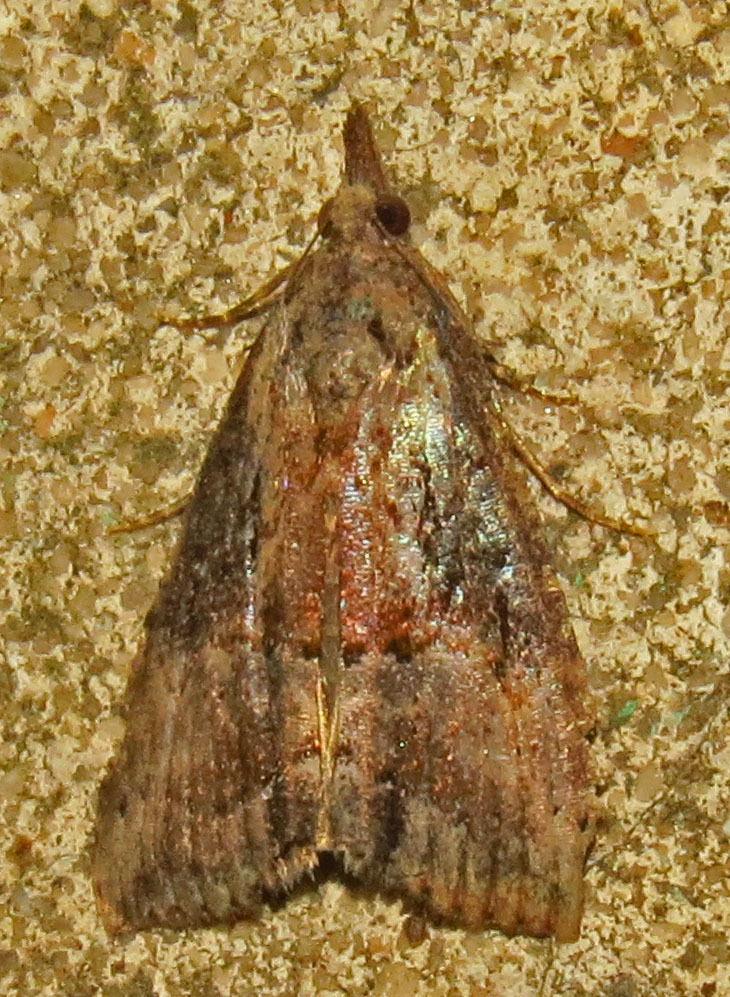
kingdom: Animalia
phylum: Arthropoda
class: Insecta
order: Lepidoptera
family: Erebidae
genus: Hypena
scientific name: Hypena scabra
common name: Green cloverworm
